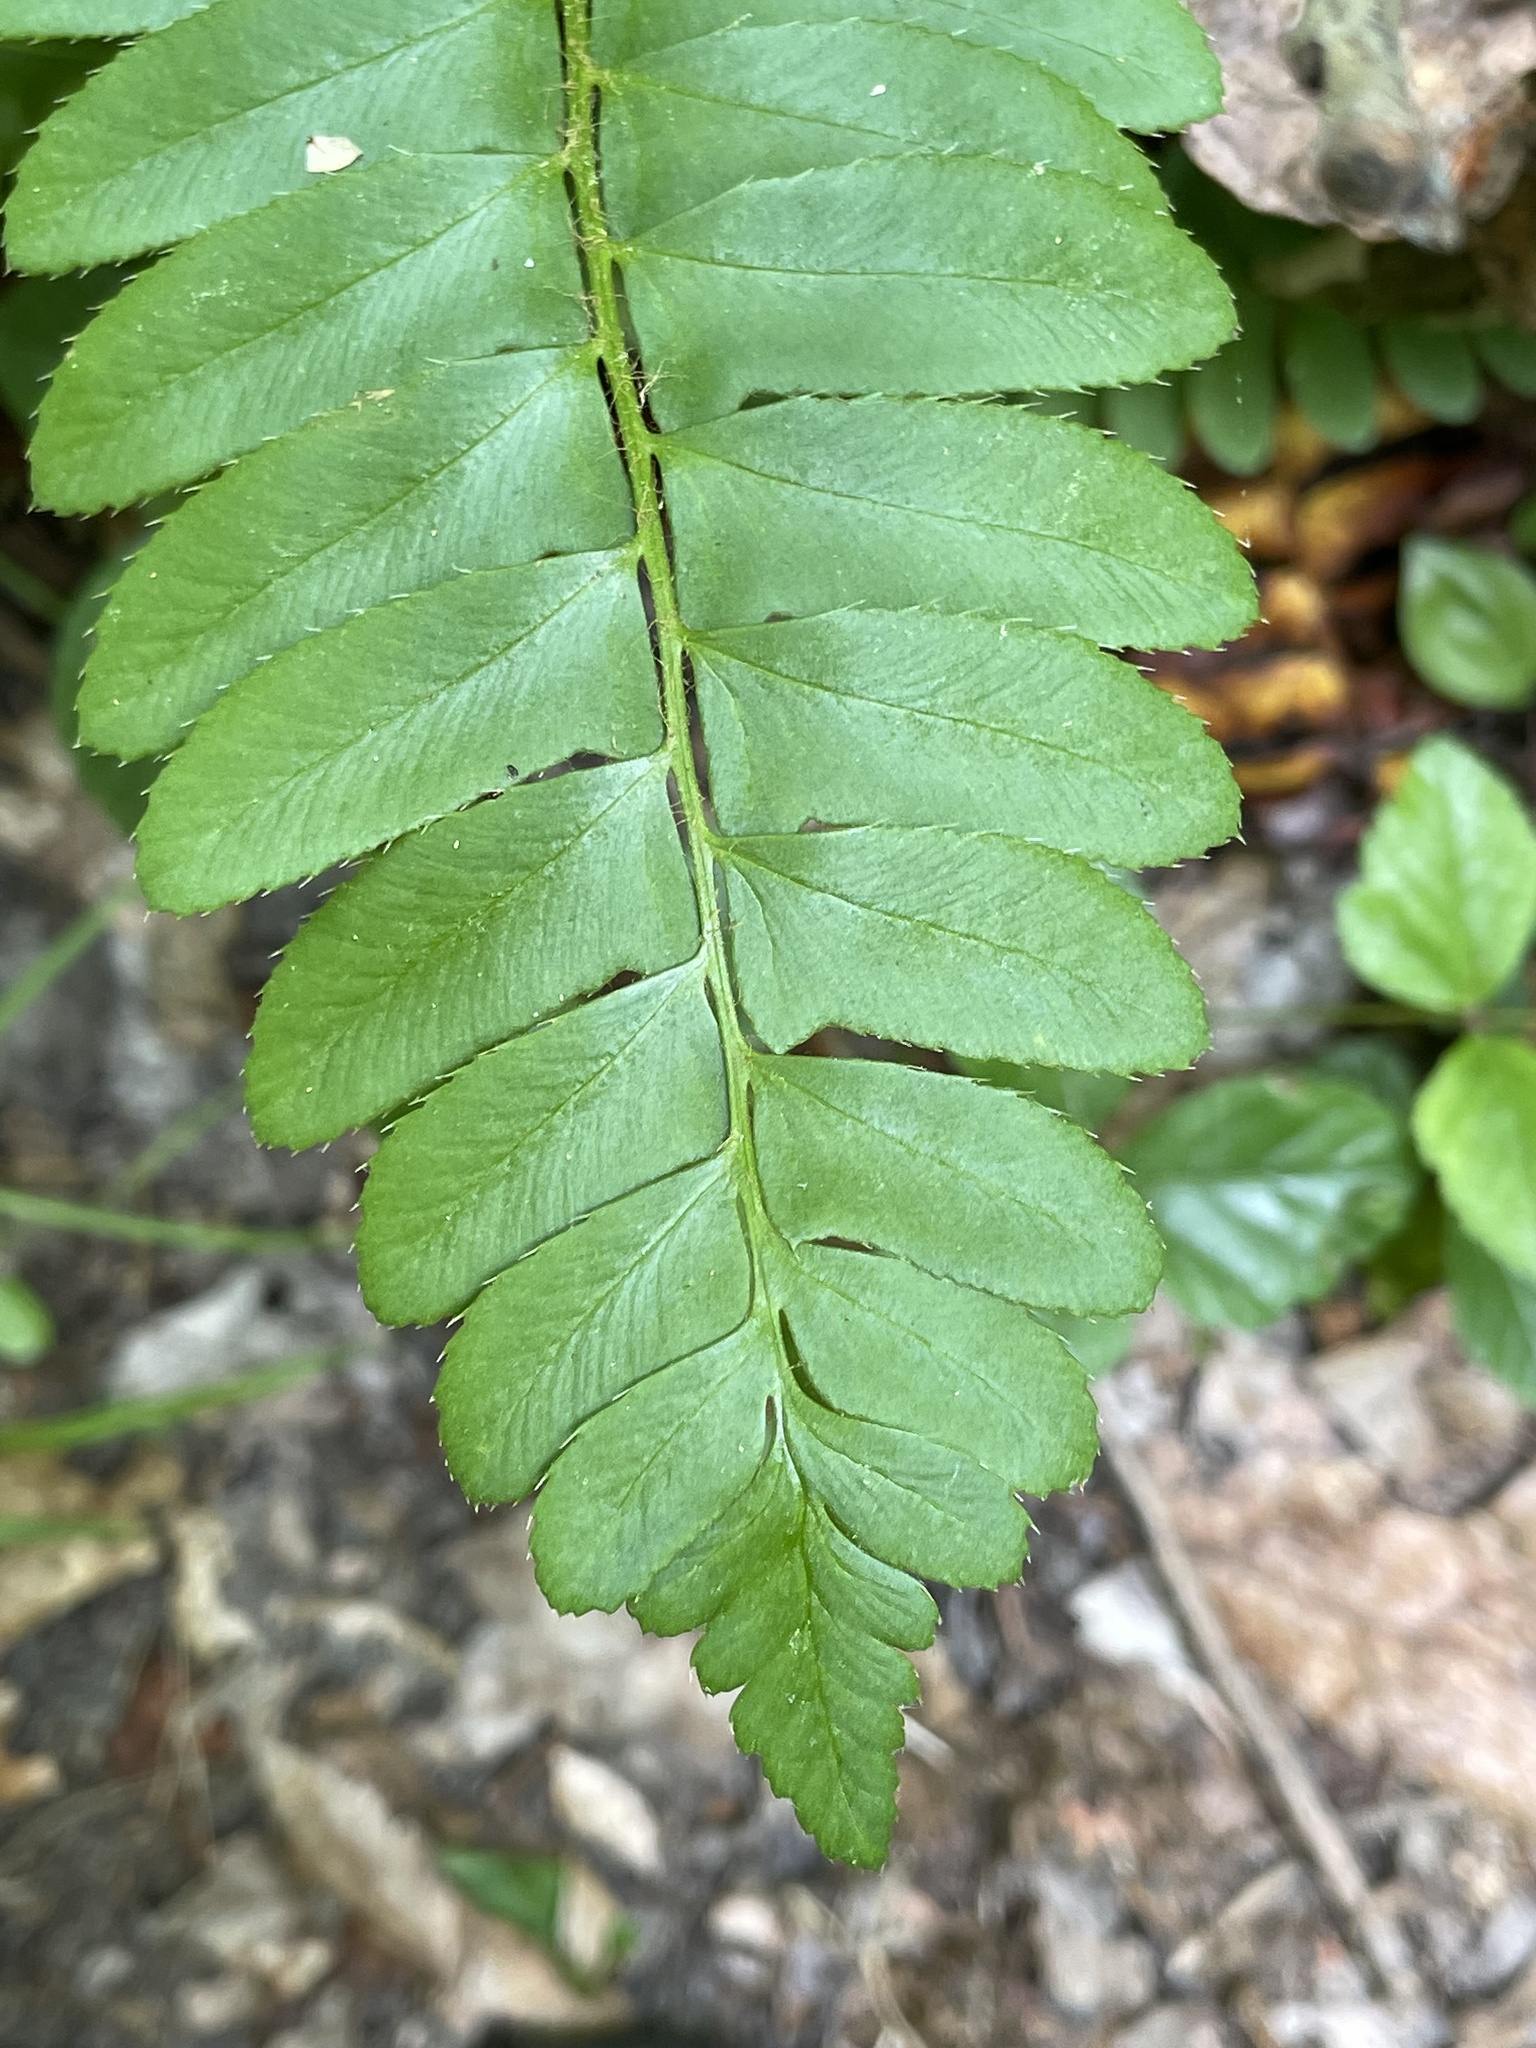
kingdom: Plantae
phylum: Tracheophyta
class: Polypodiopsida
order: Polypodiales
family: Dryopteridaceae
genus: Polystichum
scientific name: Polystichum acrostichoides
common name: Christmas fern
